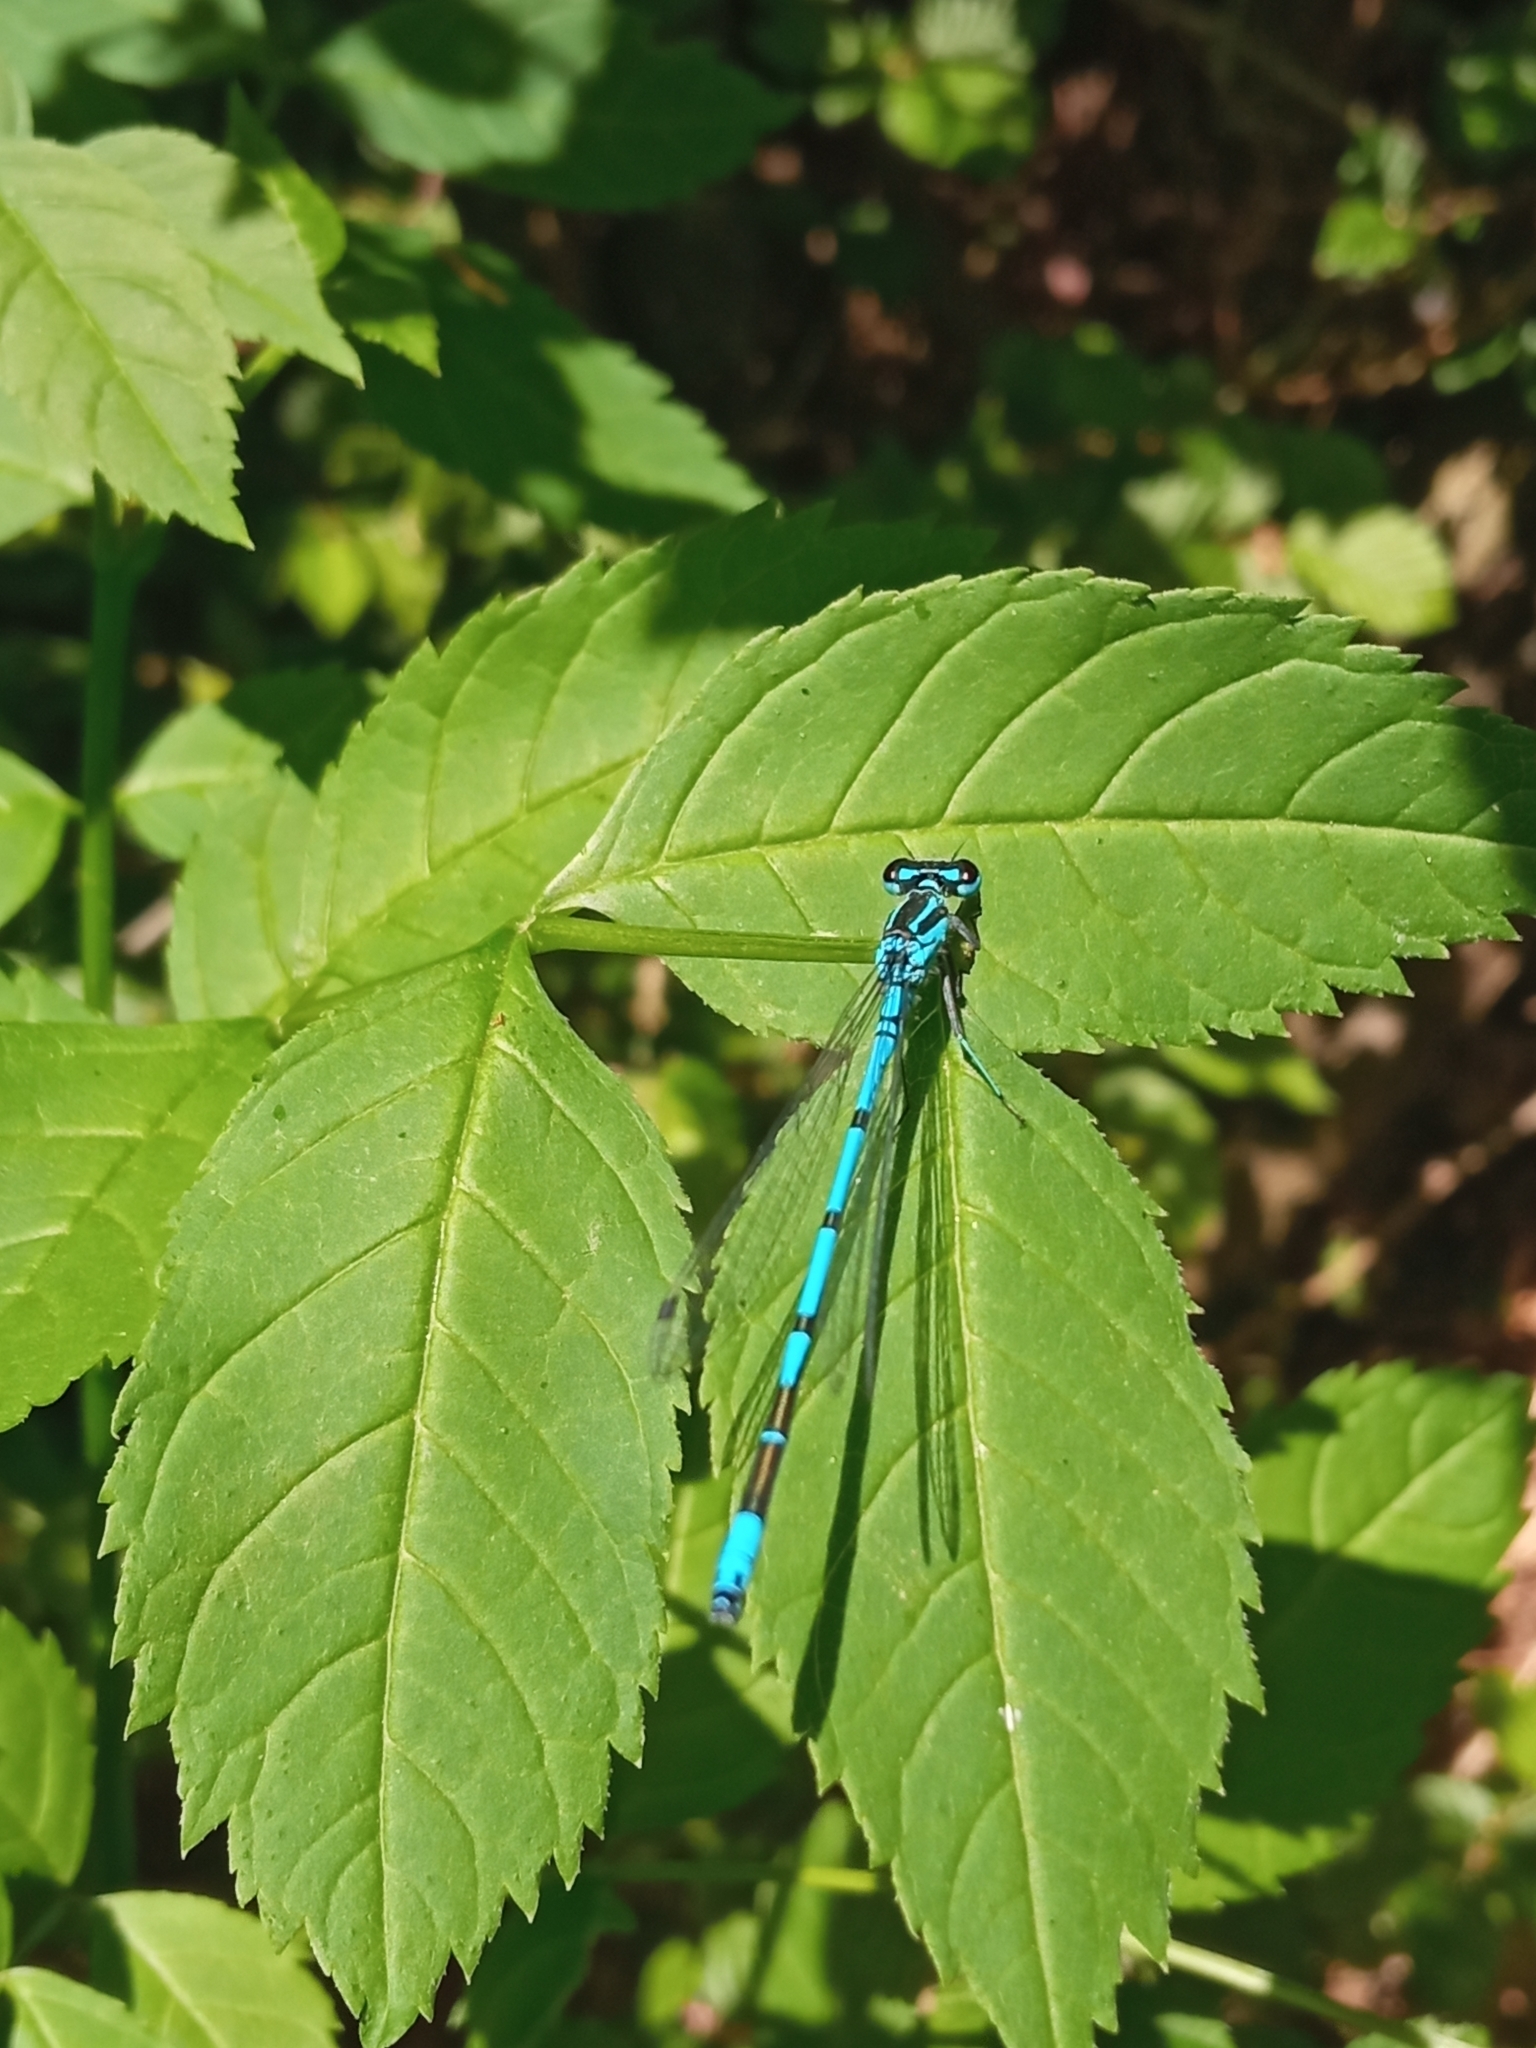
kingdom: Animalia
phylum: Arthropoda
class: Insecta
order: Odonata
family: Coenagrionidae
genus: Coenagrion
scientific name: Coenagrion puella
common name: Azure damselfly
